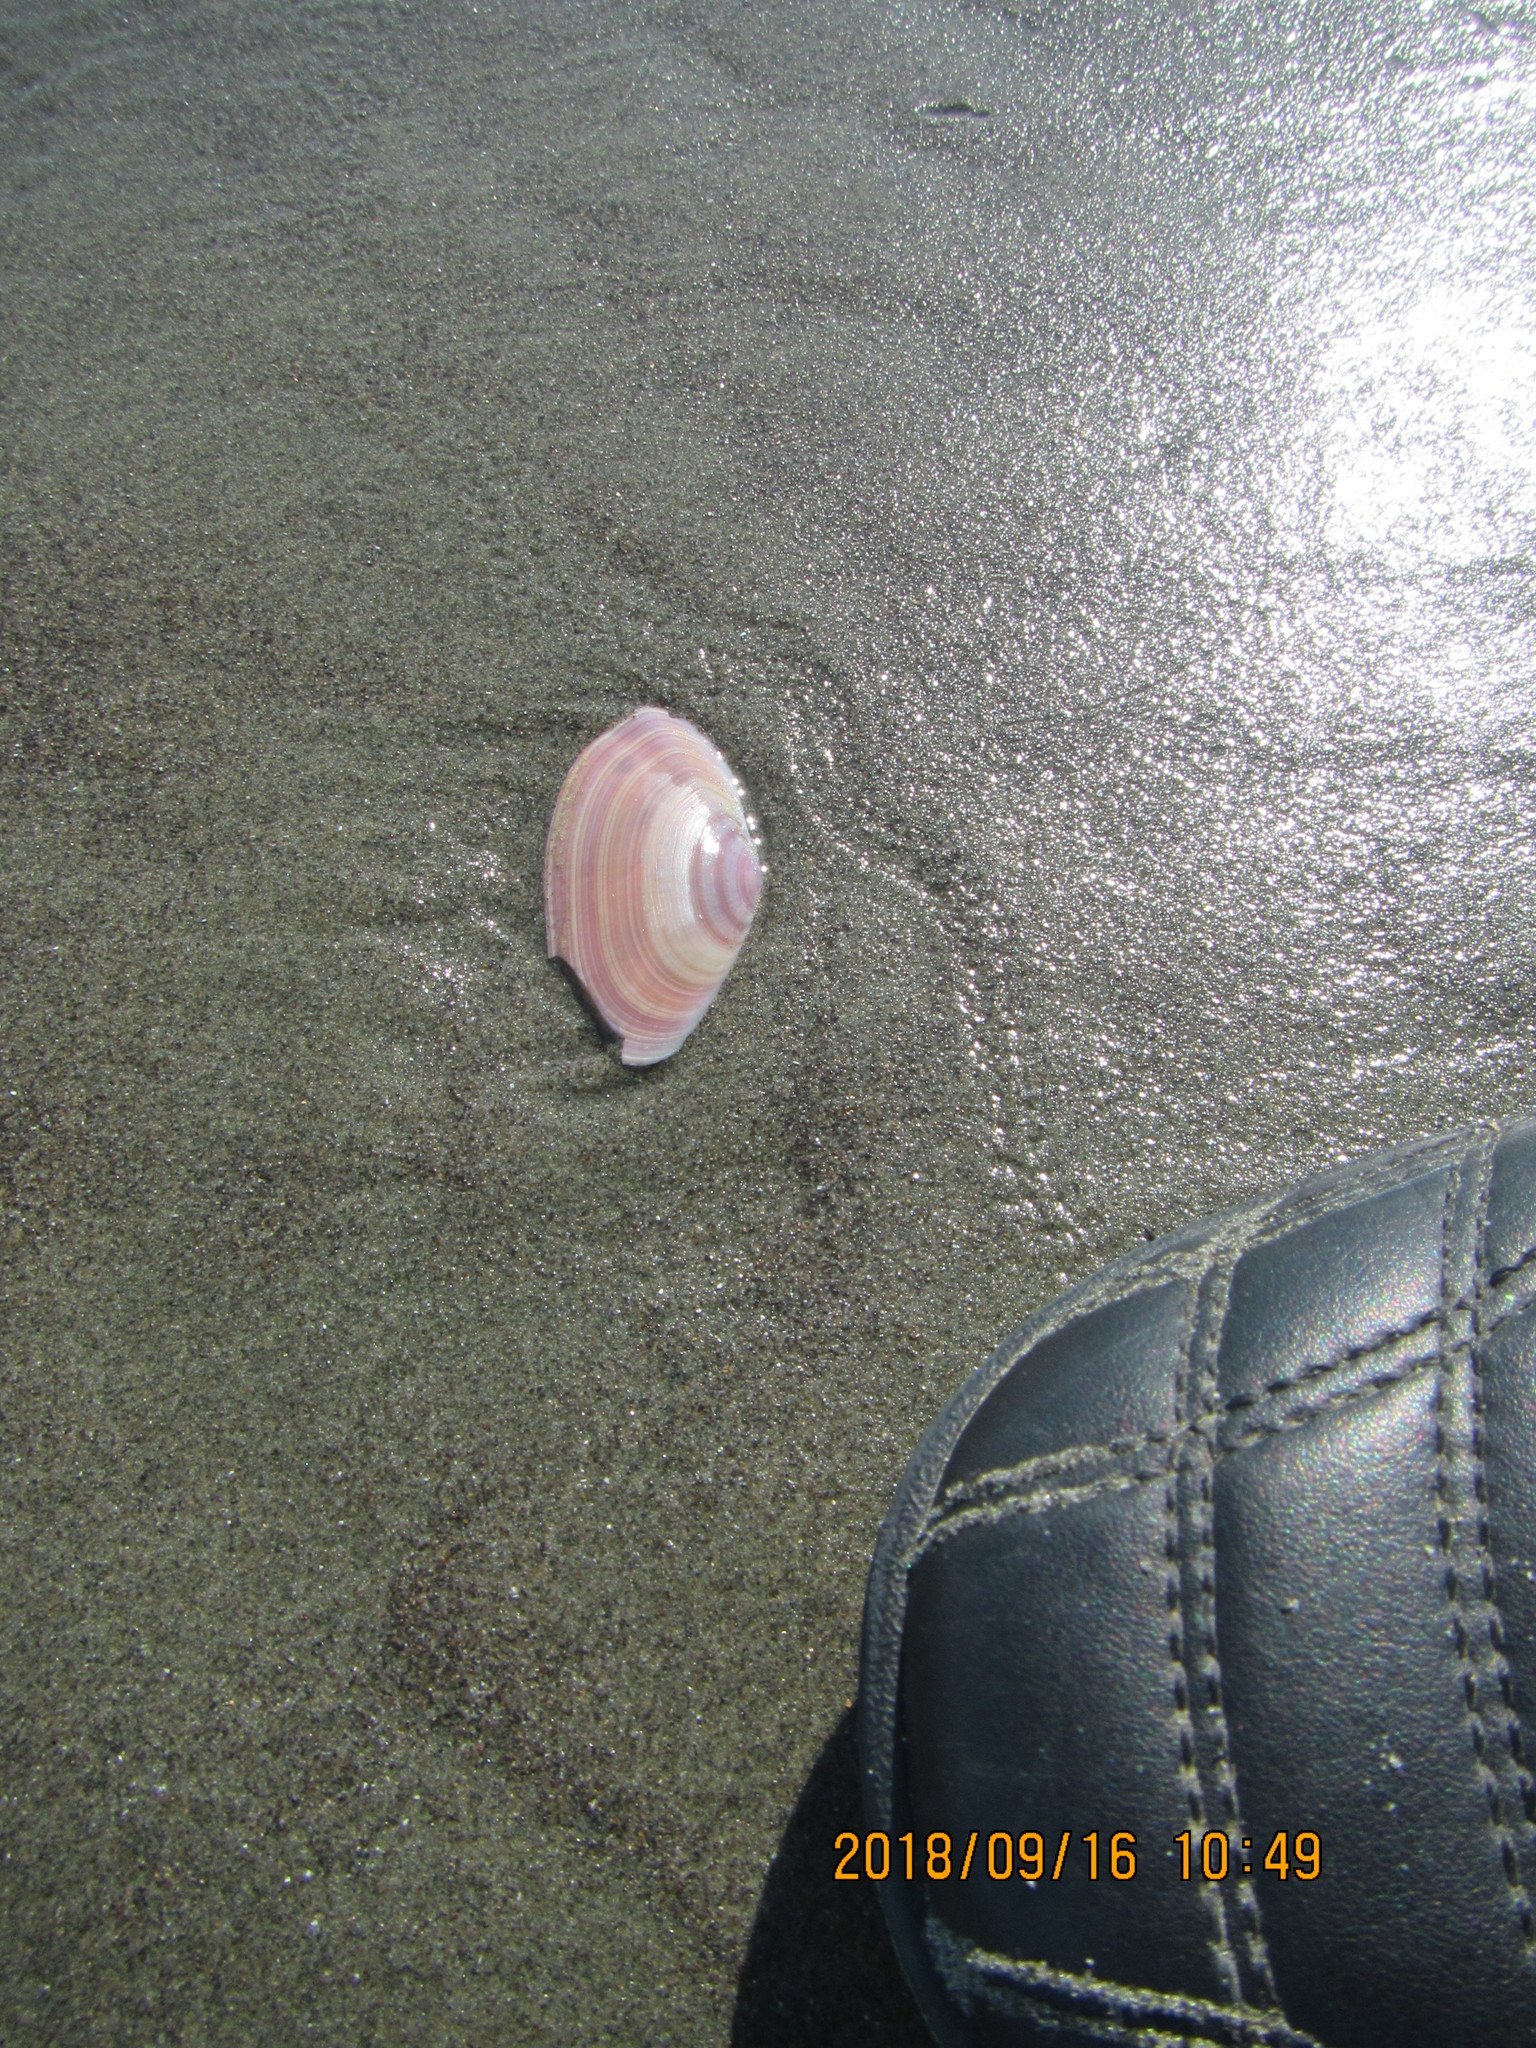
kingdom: Animalia
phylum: Mollusca
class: Bivalvia
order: Cardiida
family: Psammobiidae
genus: Gari
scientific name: Gari lineolata
